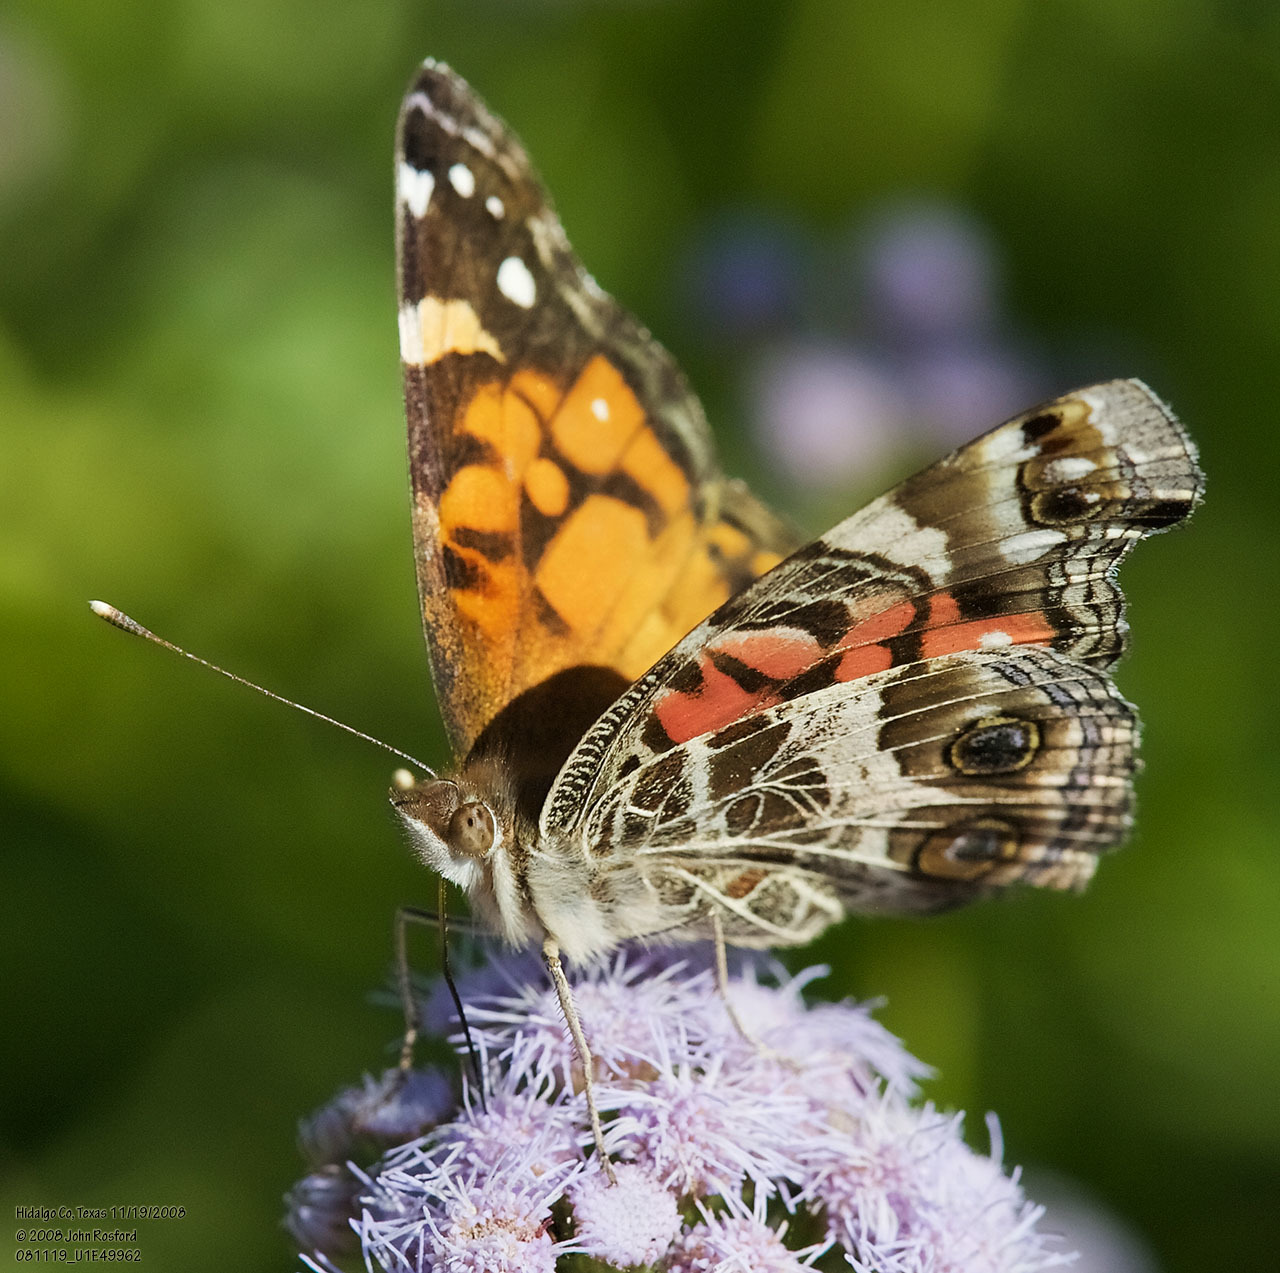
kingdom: Animalia
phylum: Arthropoda
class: Insecta
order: Lepidoptera
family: Nymphalidae
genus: Vanessa
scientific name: Vanessa virginiensis
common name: American lady
